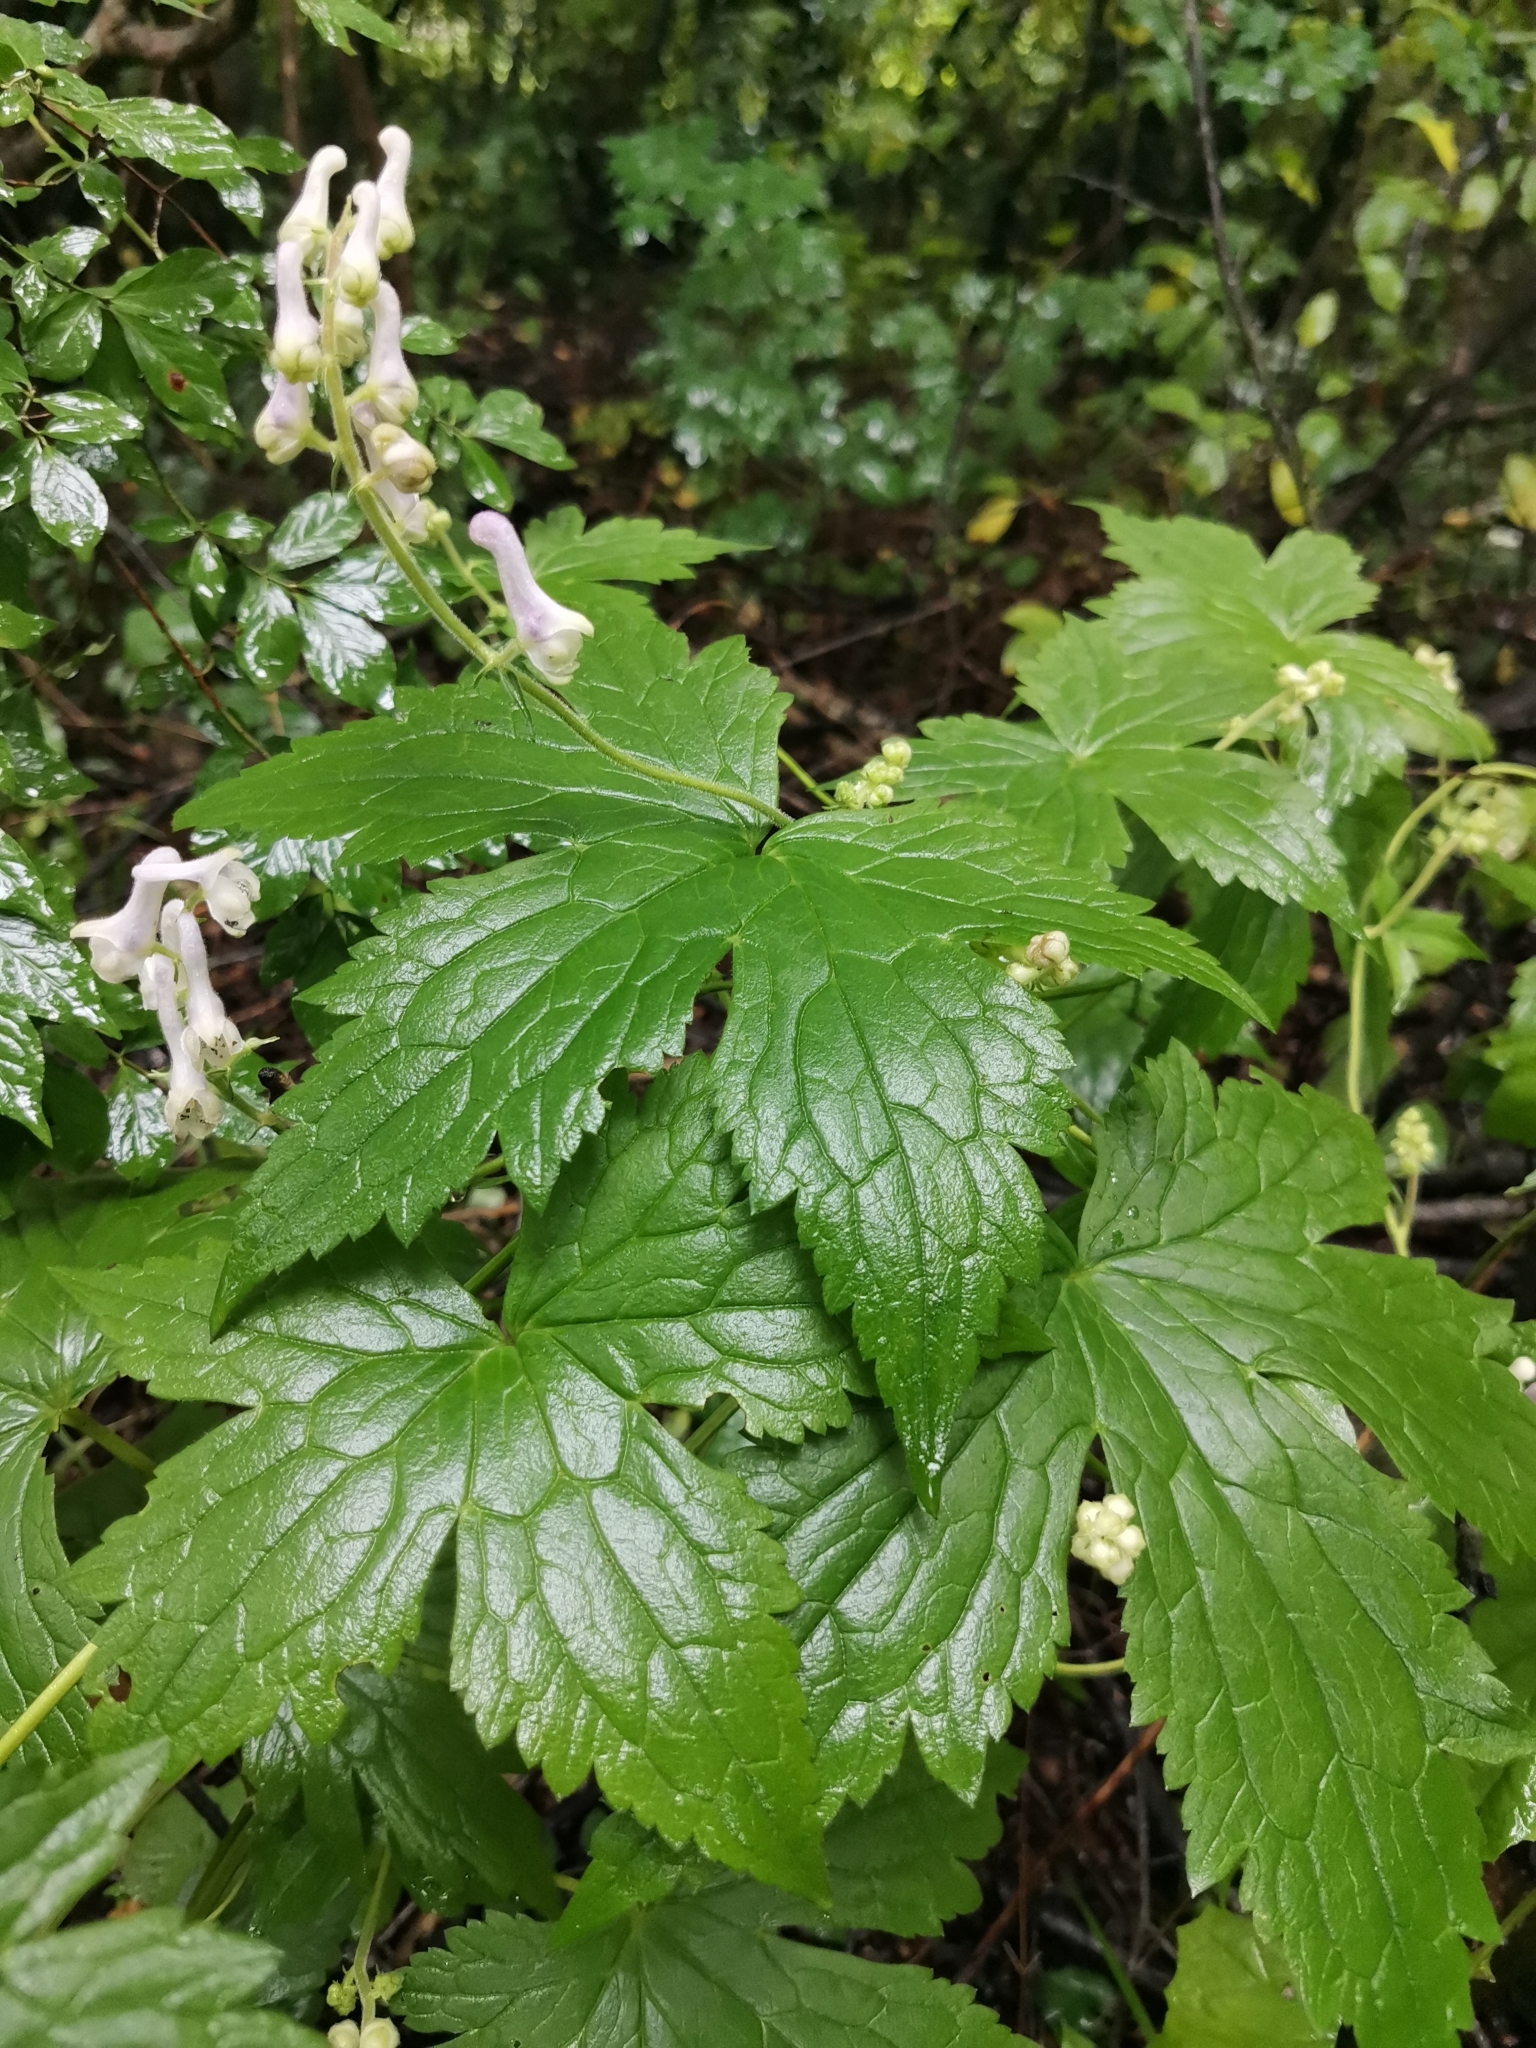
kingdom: Plantae
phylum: Tracheophyta
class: Magnoliopsida
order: Ranunculales
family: Ranunculaceae
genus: Aconitum
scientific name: Aconitum alboviolaceum
